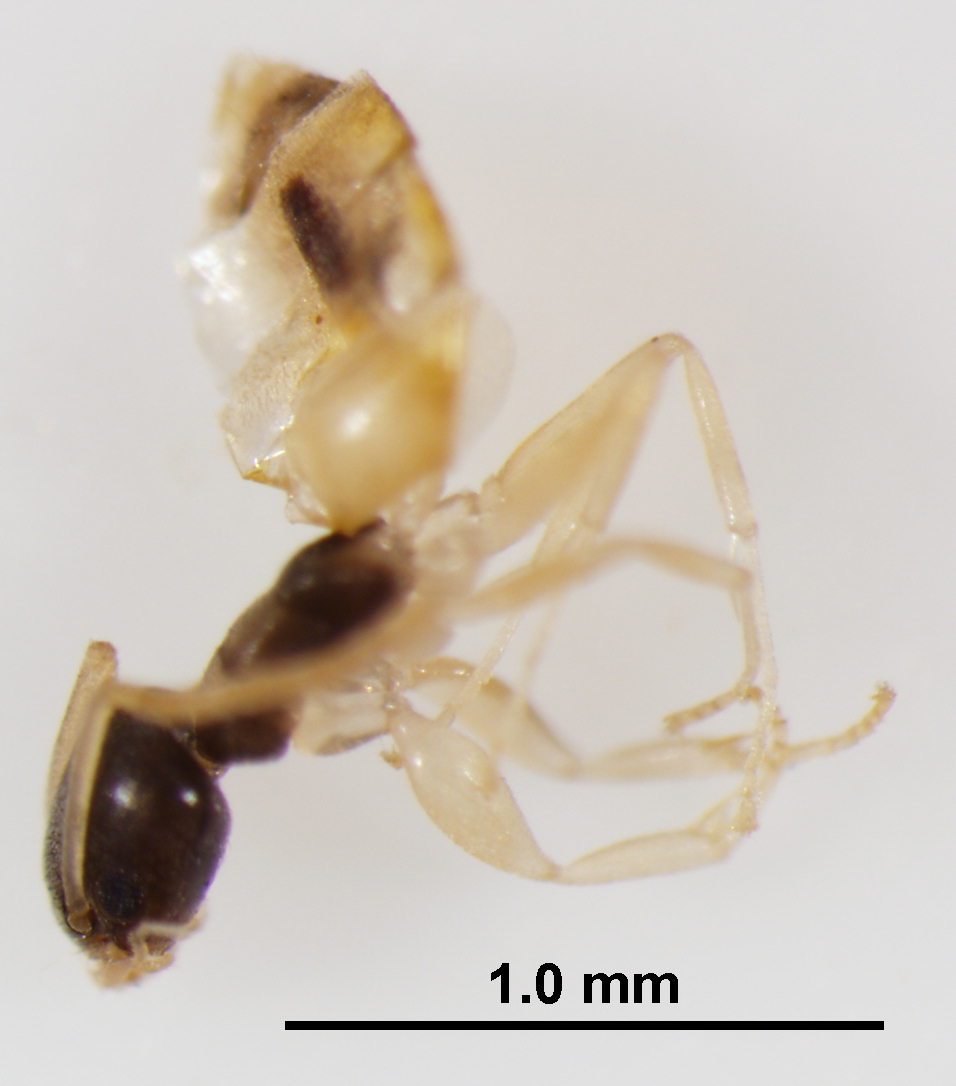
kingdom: Animalia
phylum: Arthropoda
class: Insecta
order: Hymenoptera
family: Formicidae
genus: Tapinoma
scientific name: Tapinoma melanocephalum
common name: Ghost ant
